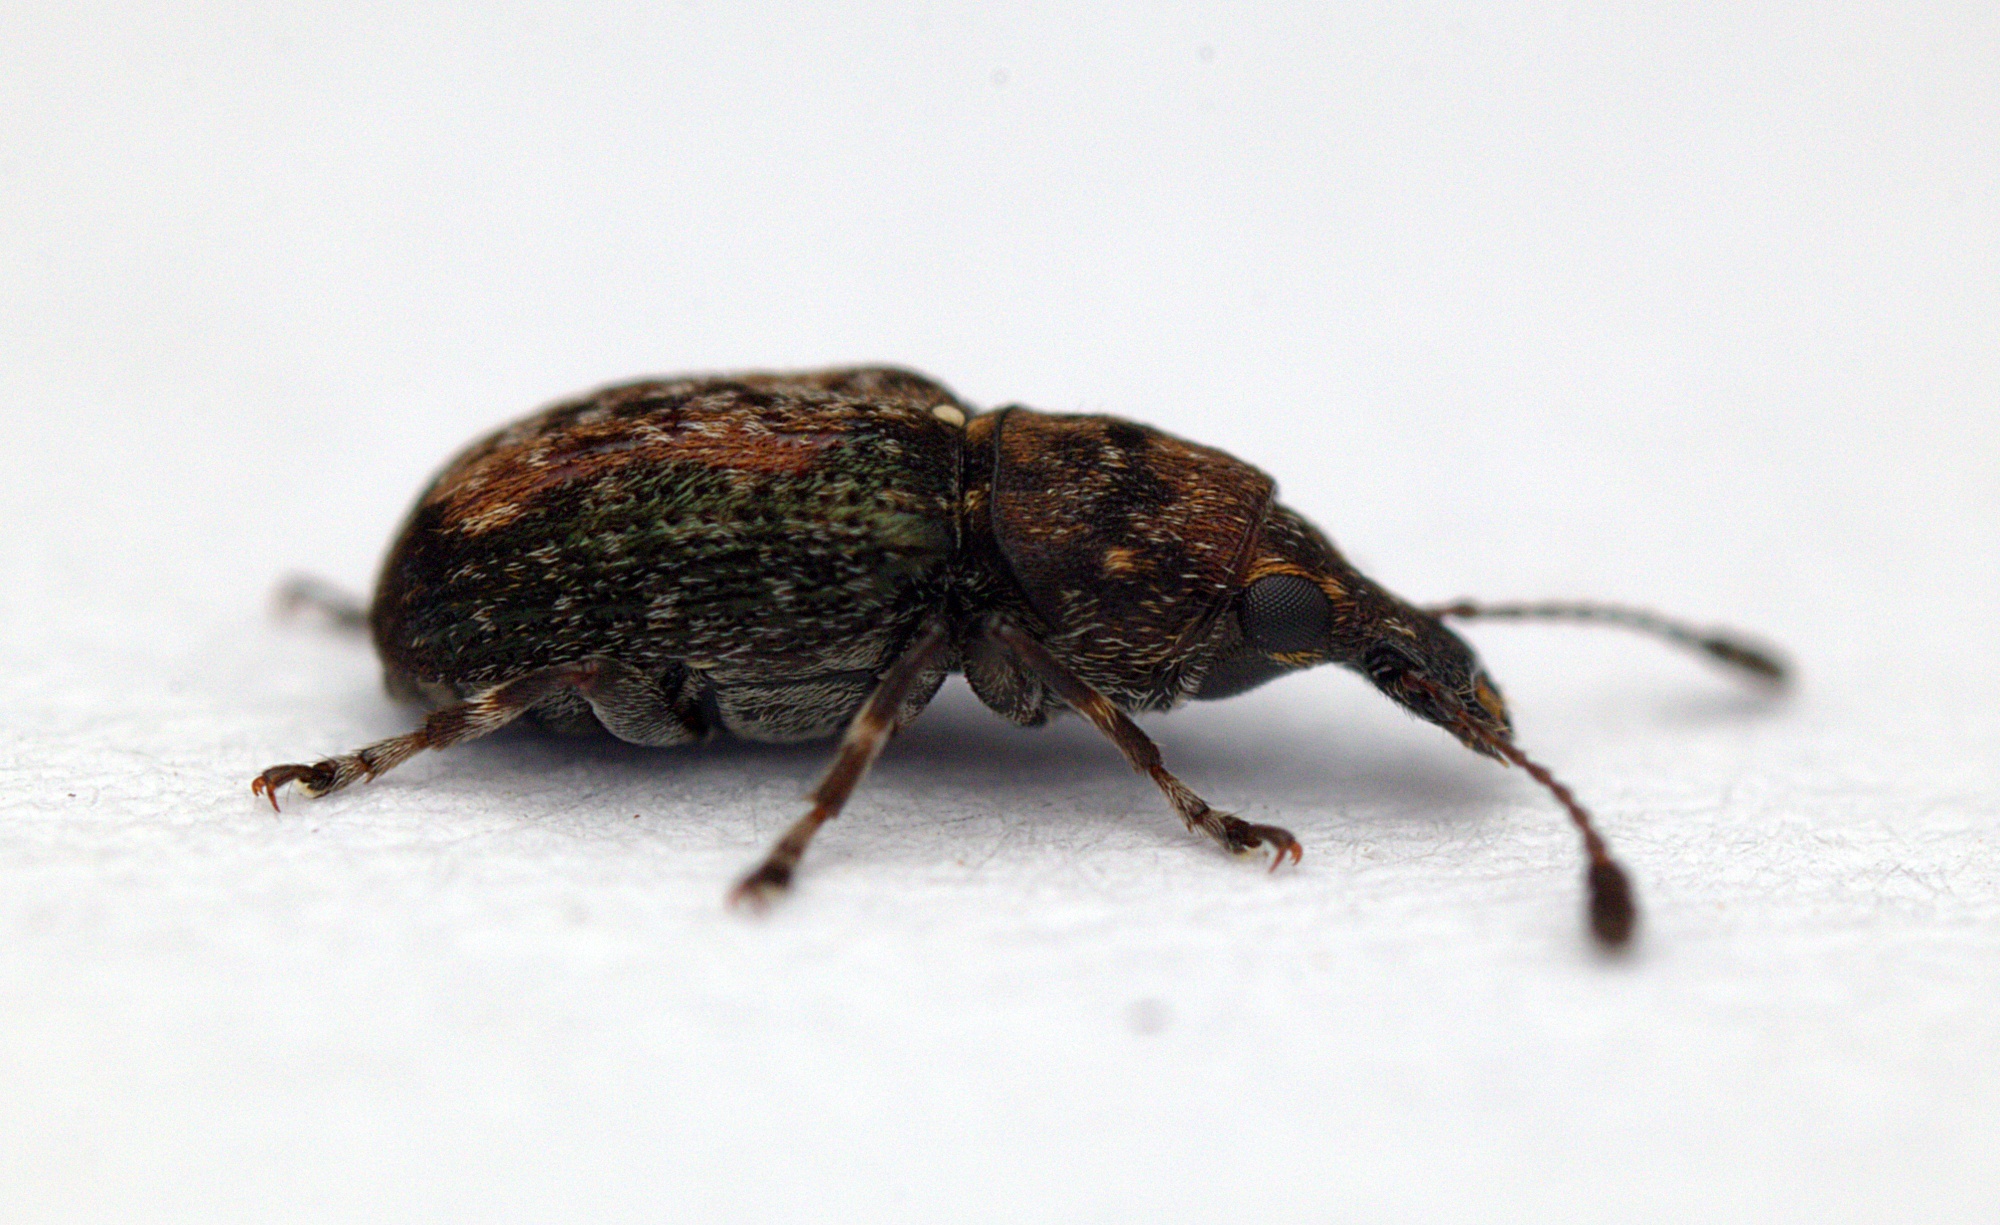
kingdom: Animalia
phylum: Arthropoda
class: Insecta
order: Coleoptera
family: Anthribidae
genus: Sharpius
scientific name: Sharpius
